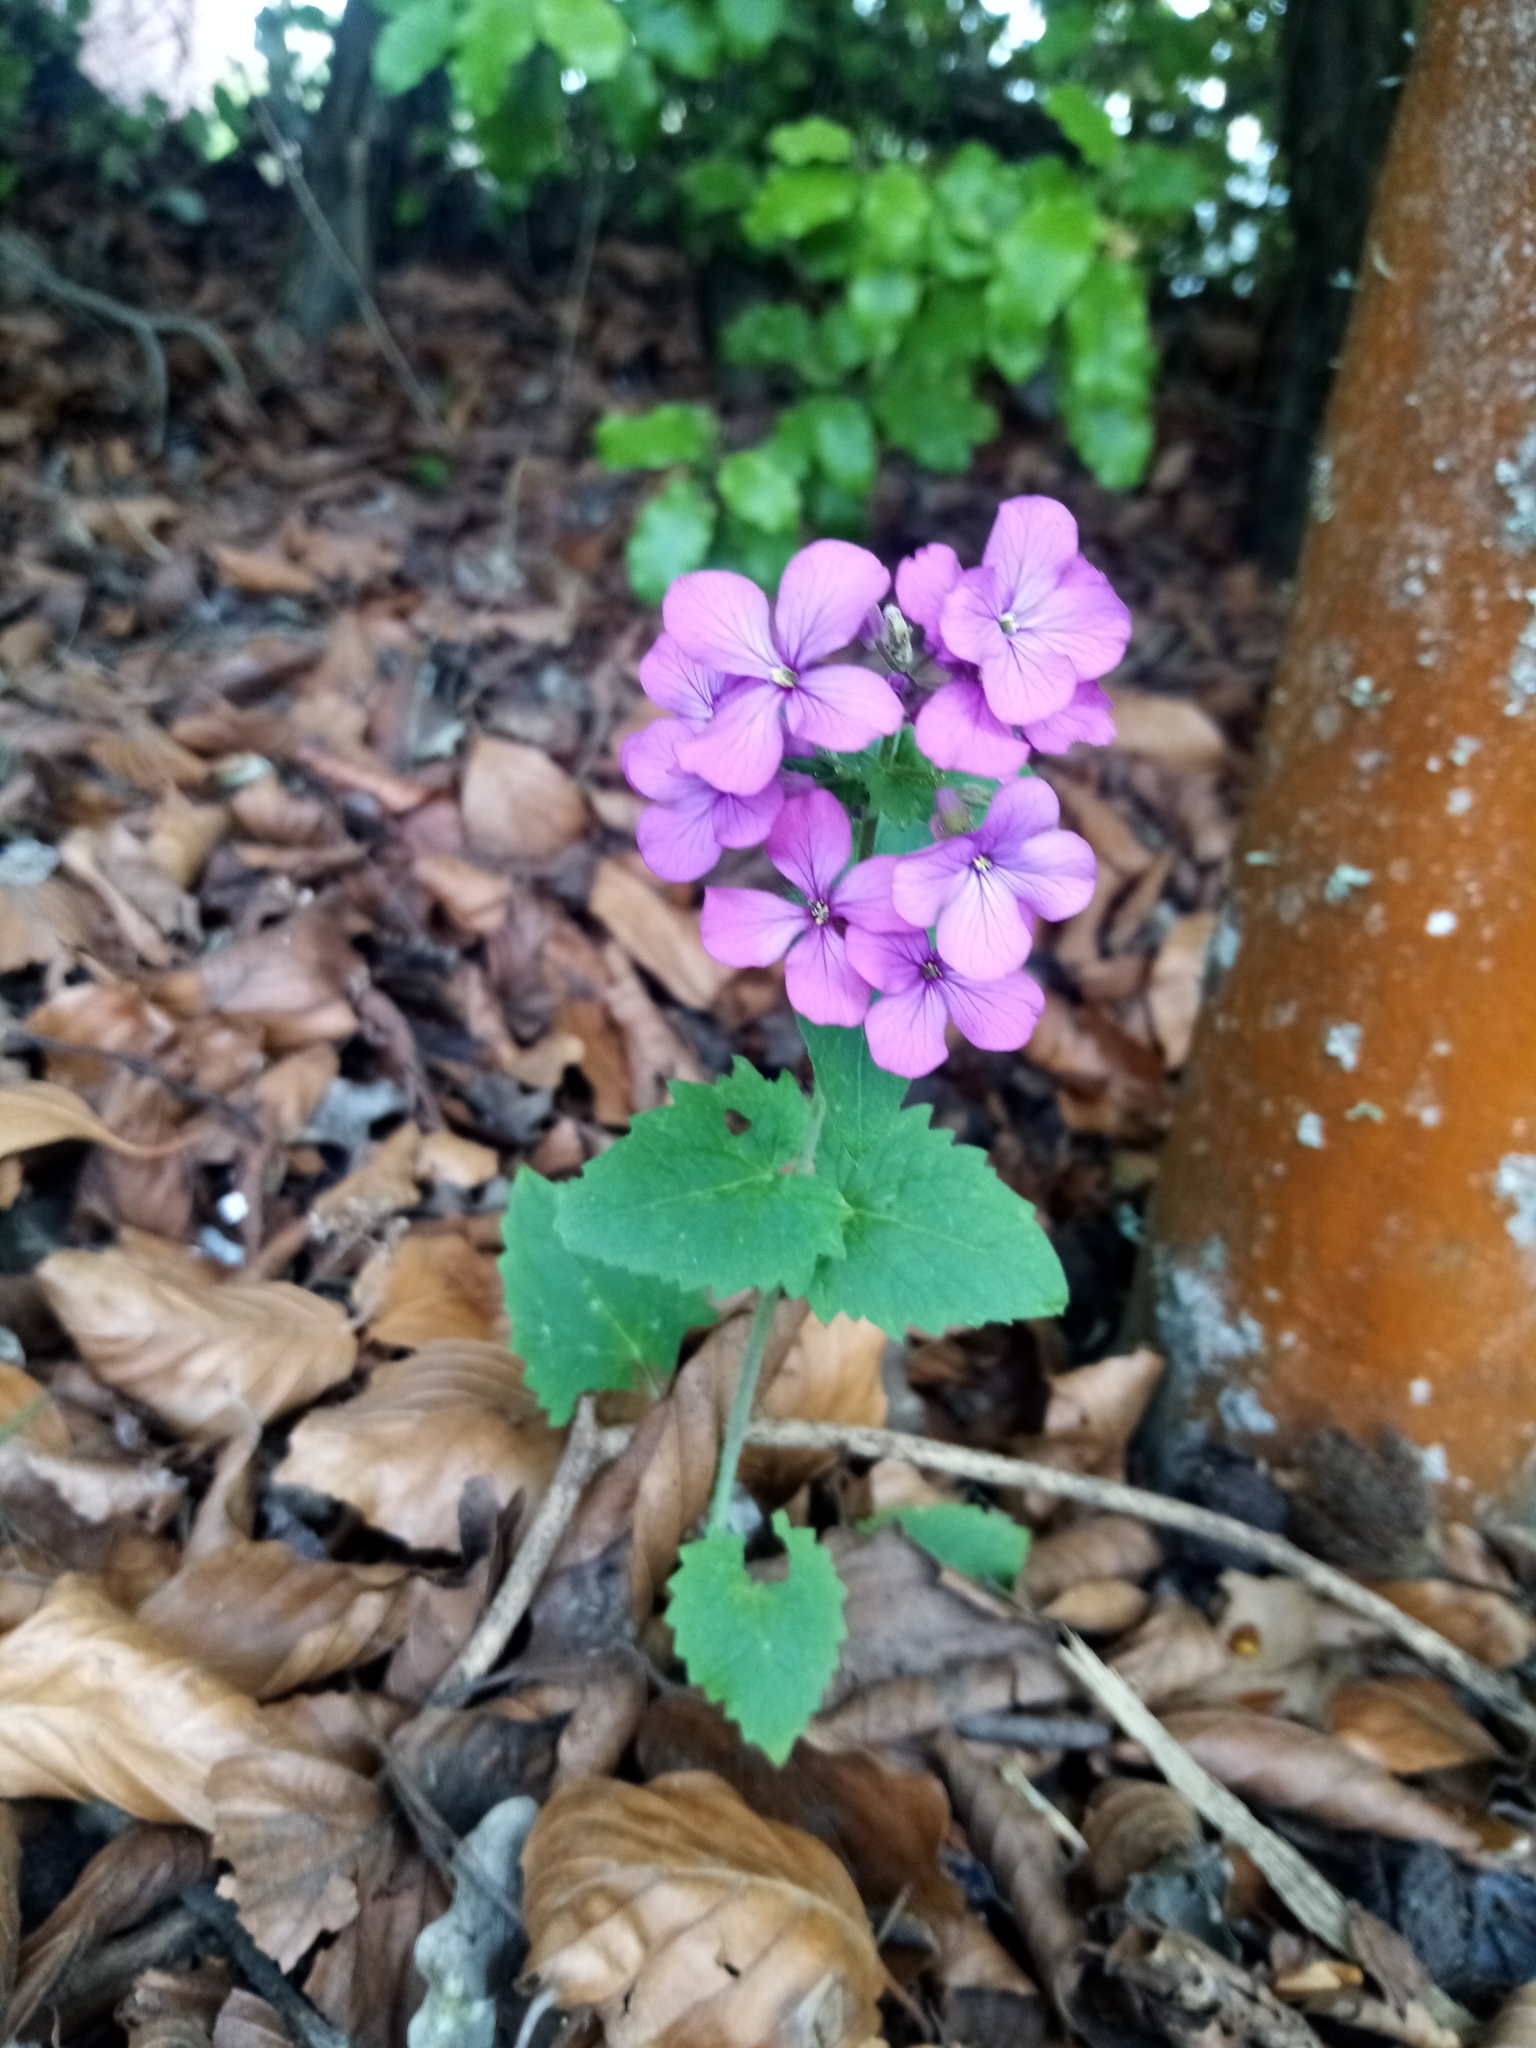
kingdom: Plantae
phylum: Tracheophyta
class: Magnoliopsida
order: Brassicales
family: Brassicaceae
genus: Lunaria
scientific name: Lunaria annua
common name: Honesty
